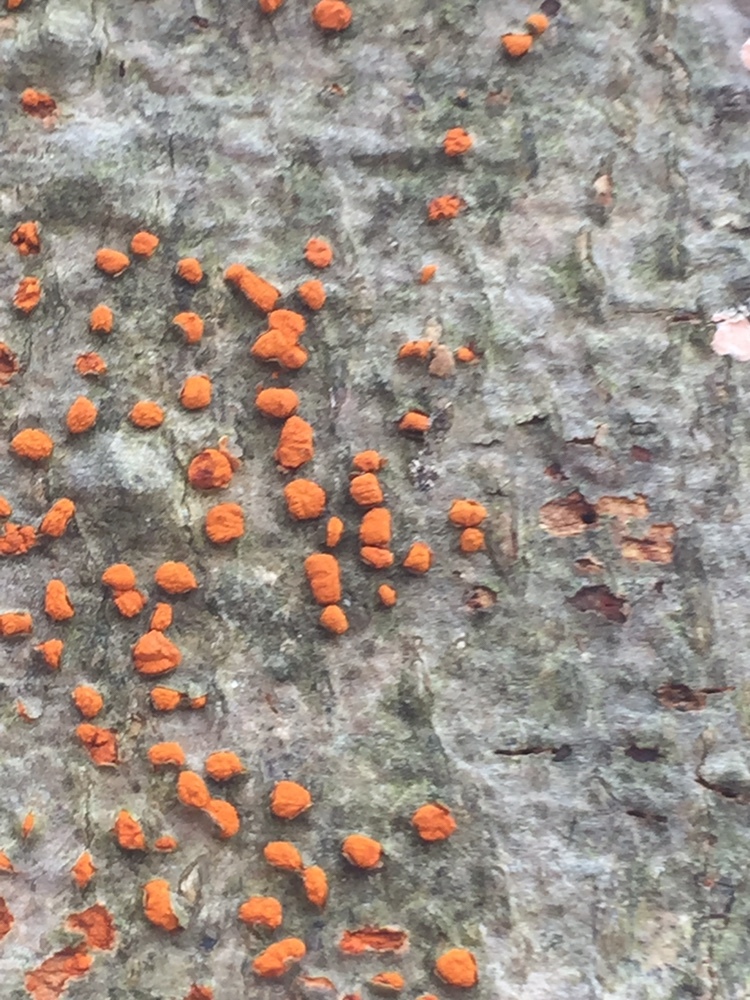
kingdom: Fungi
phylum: Ascomycota
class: Sordariomycetes
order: Diaporthales
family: Cryphonectriaceae
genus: Amphilogia
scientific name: Amphilogia gyrosa
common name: Orange hobnail canker
